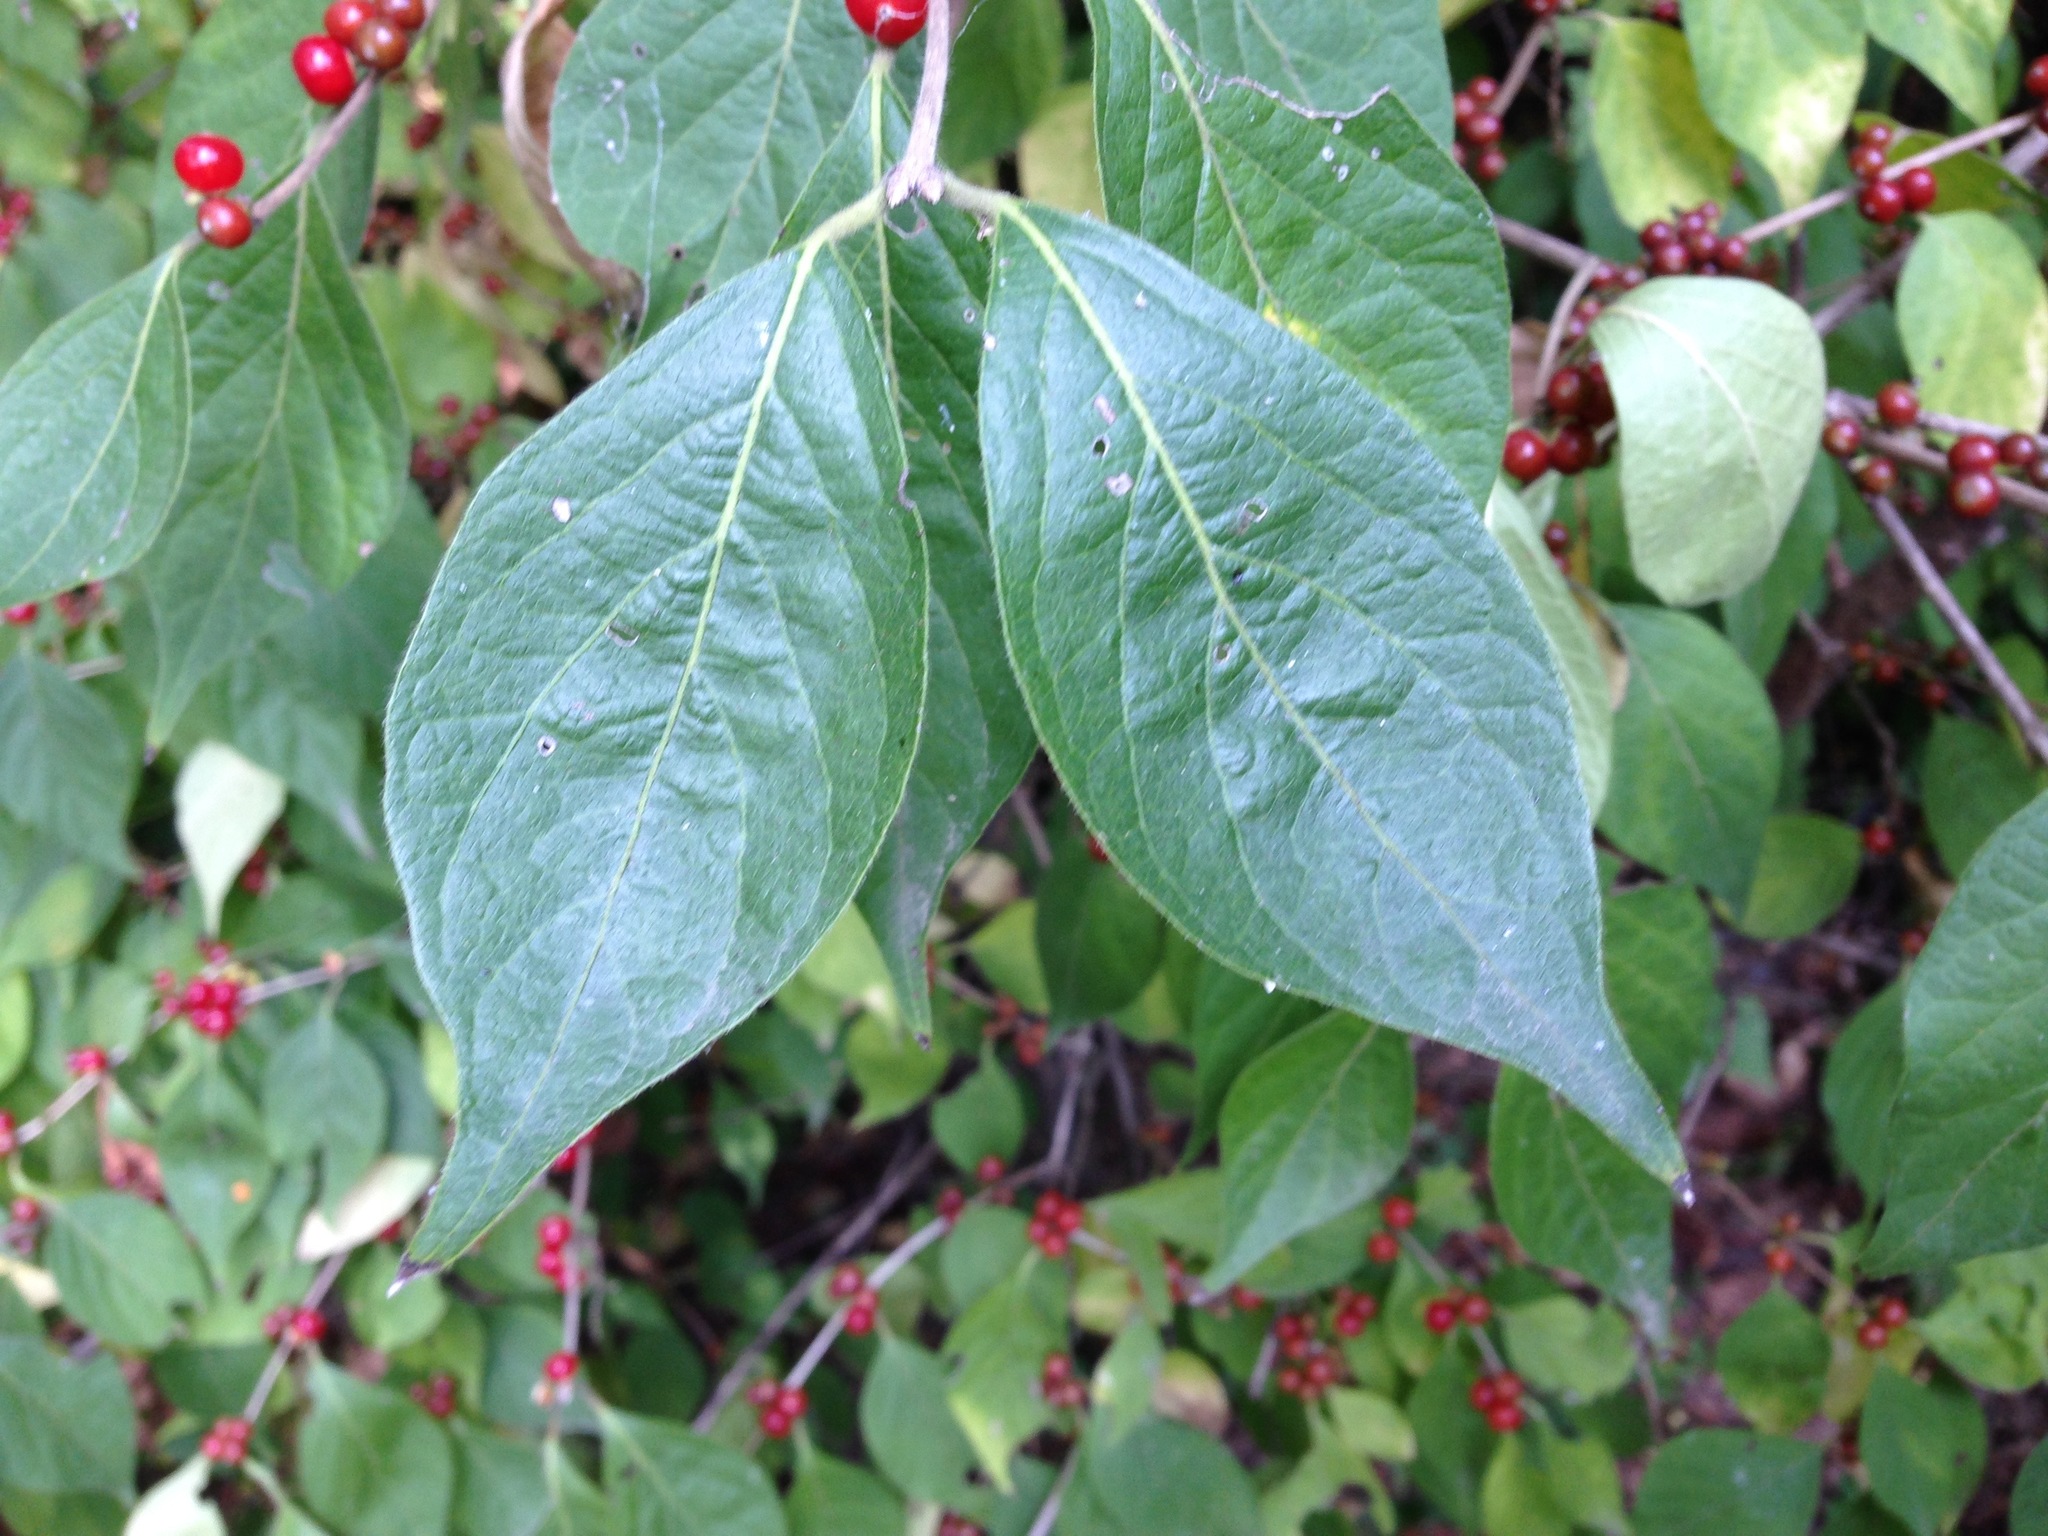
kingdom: Plantae
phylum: Tracheophyta
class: Magnoliopsida
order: Dipsacales
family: Caprifoliaceae
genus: Lonicera
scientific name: Lonicera maackii
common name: Amur honeysuckle
